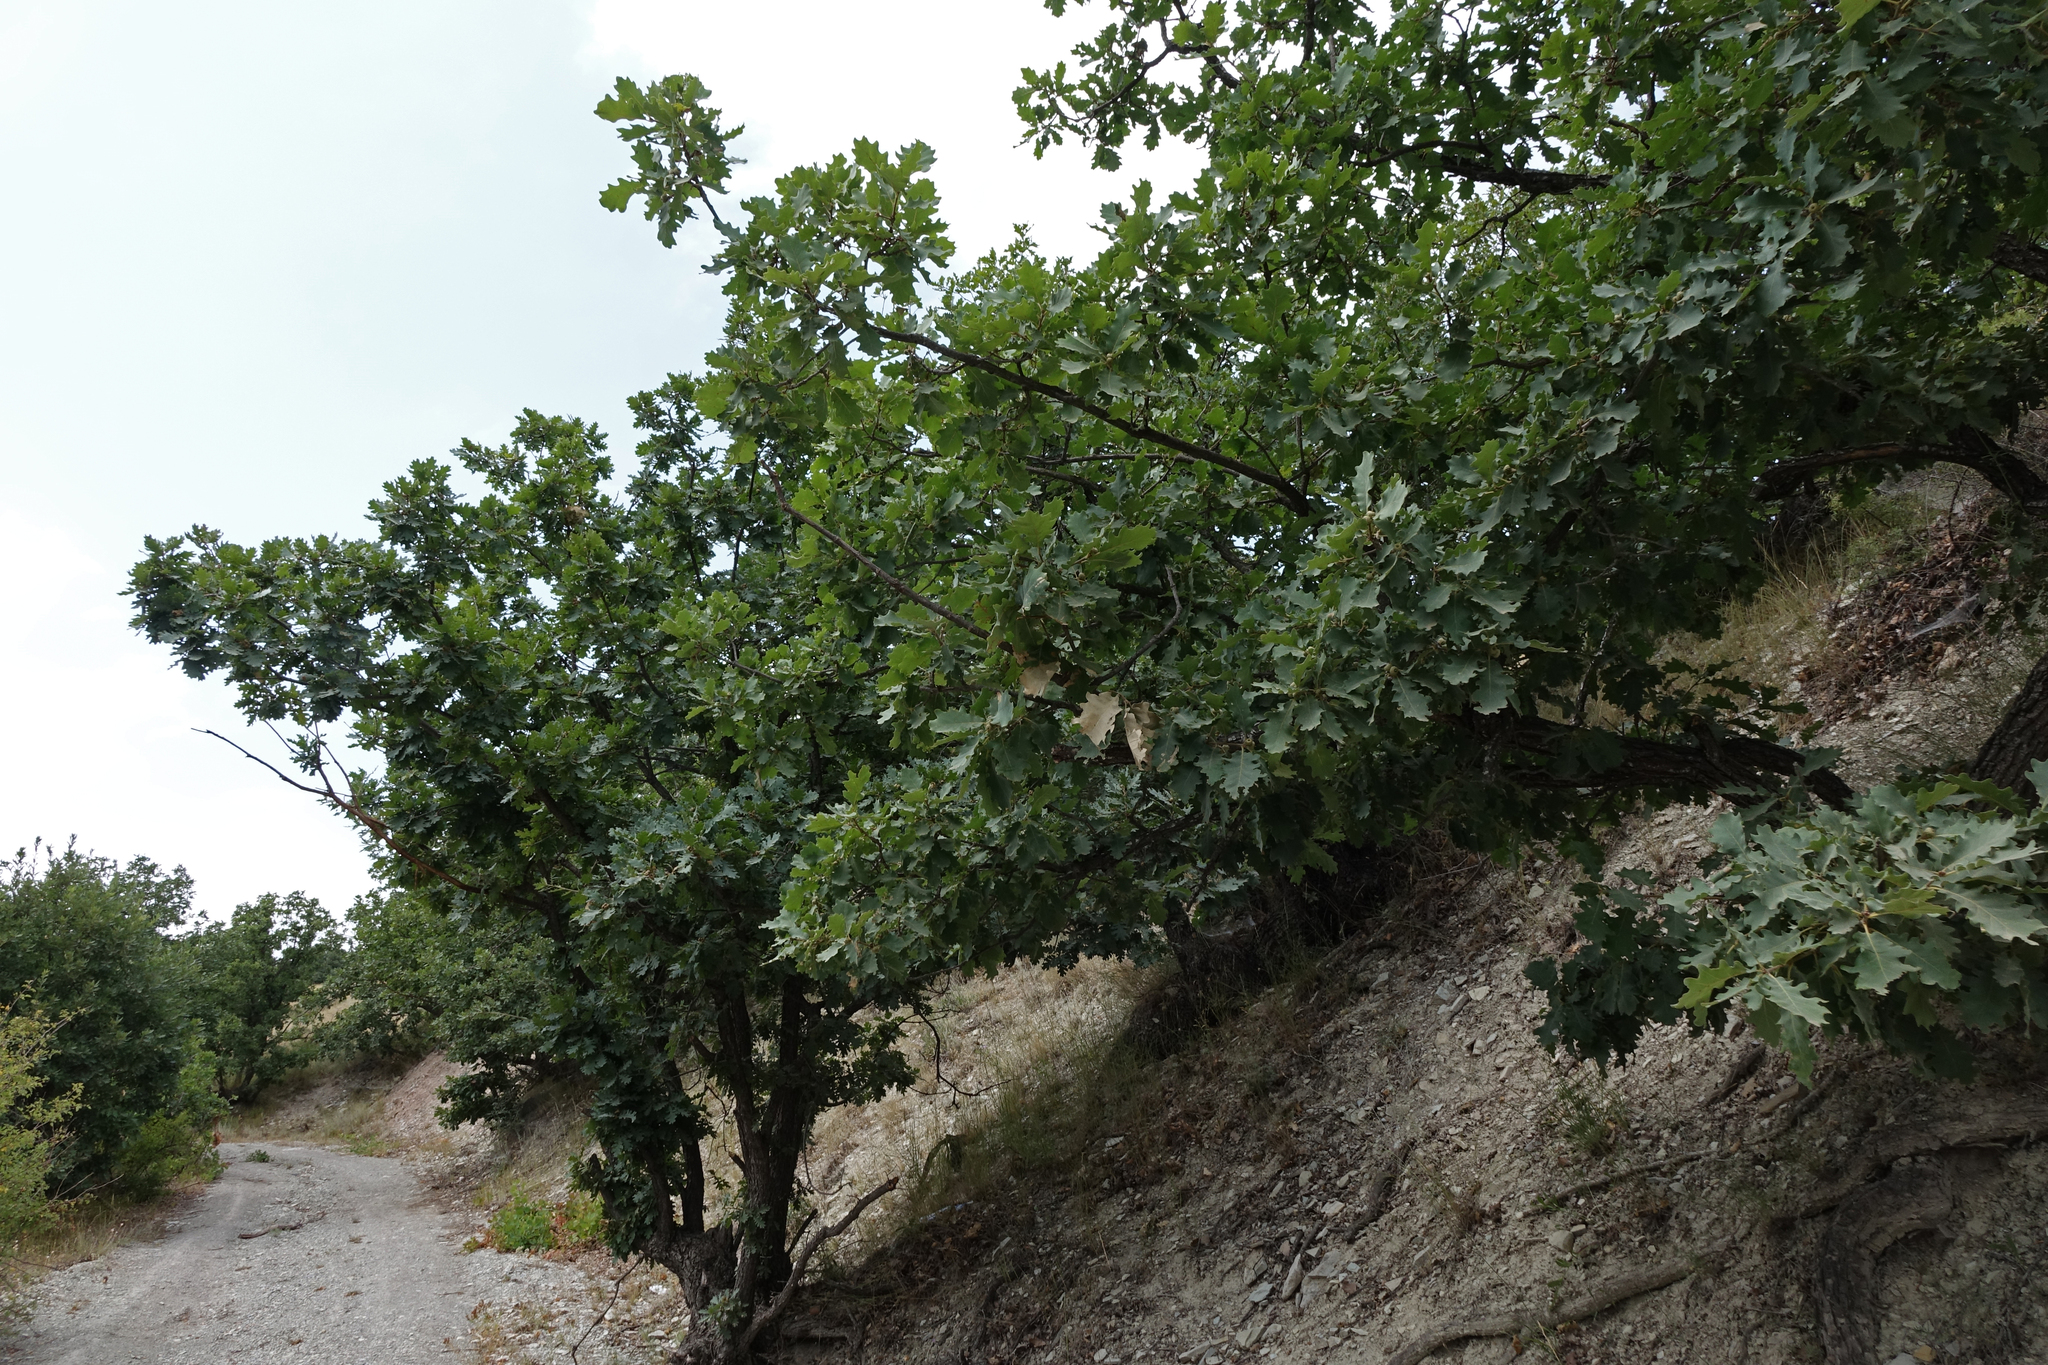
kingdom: Plantae
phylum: Tracheophyta
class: Magnoliopsida
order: Fagales
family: Fagaceae
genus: Quercus
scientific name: Quercus petraea
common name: Sessile oak
